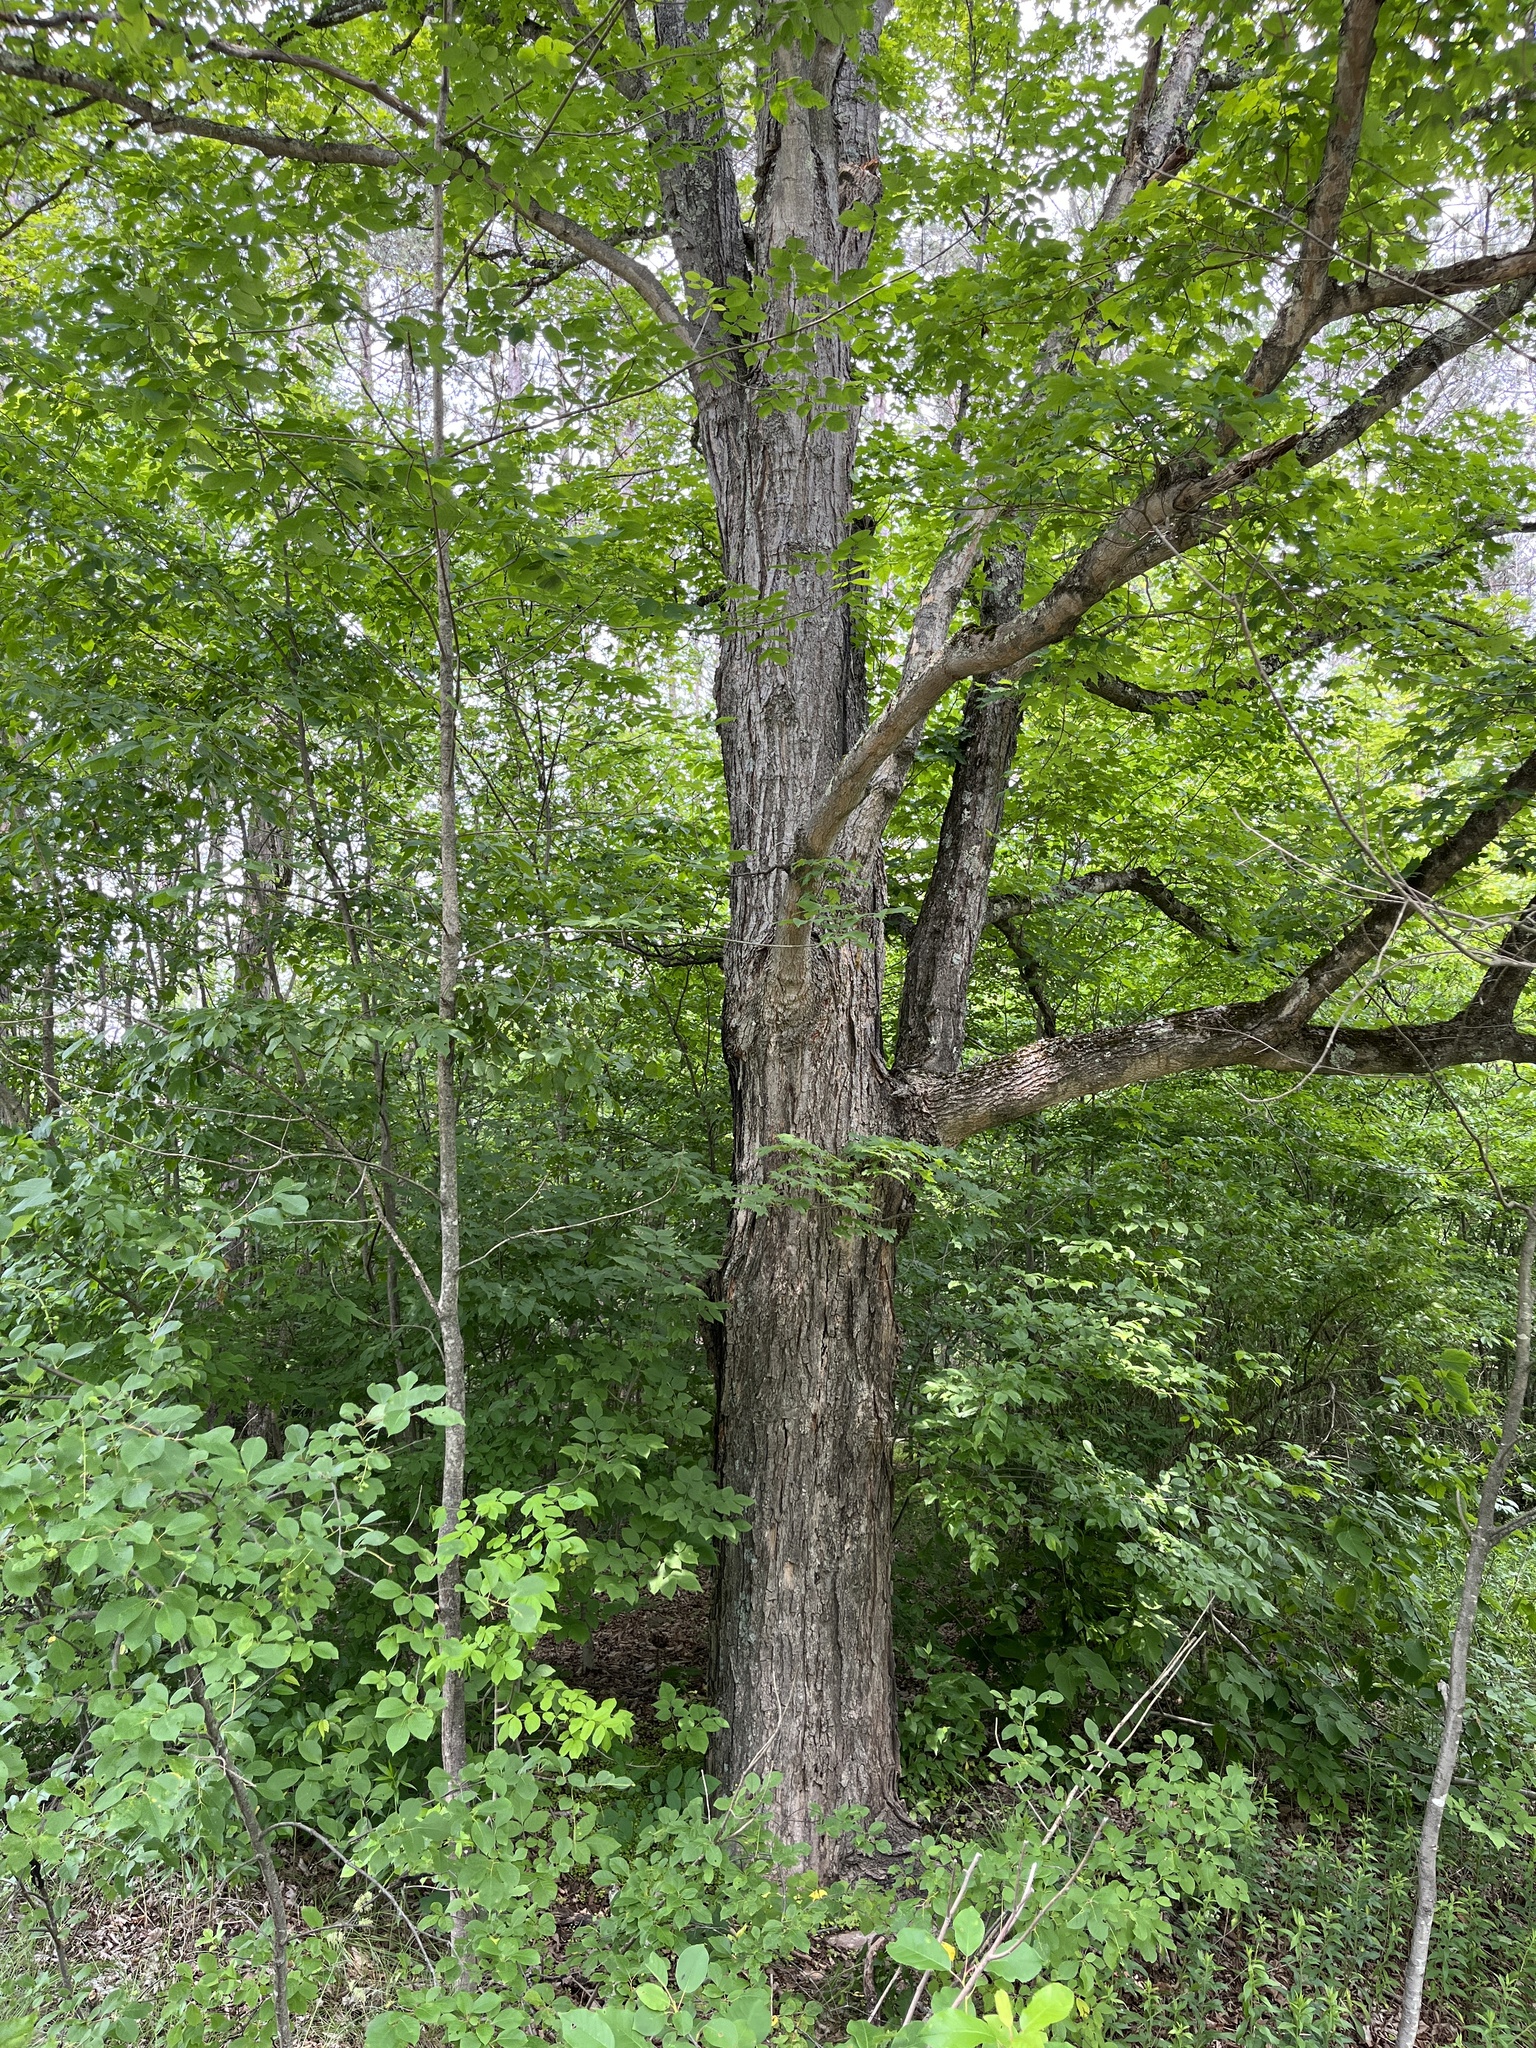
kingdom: Plantae
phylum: Tracheophyta
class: Magnoliopsida
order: Sapindales
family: Sapindaceae
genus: Acer
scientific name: Acer saccharum
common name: Sugar maple
